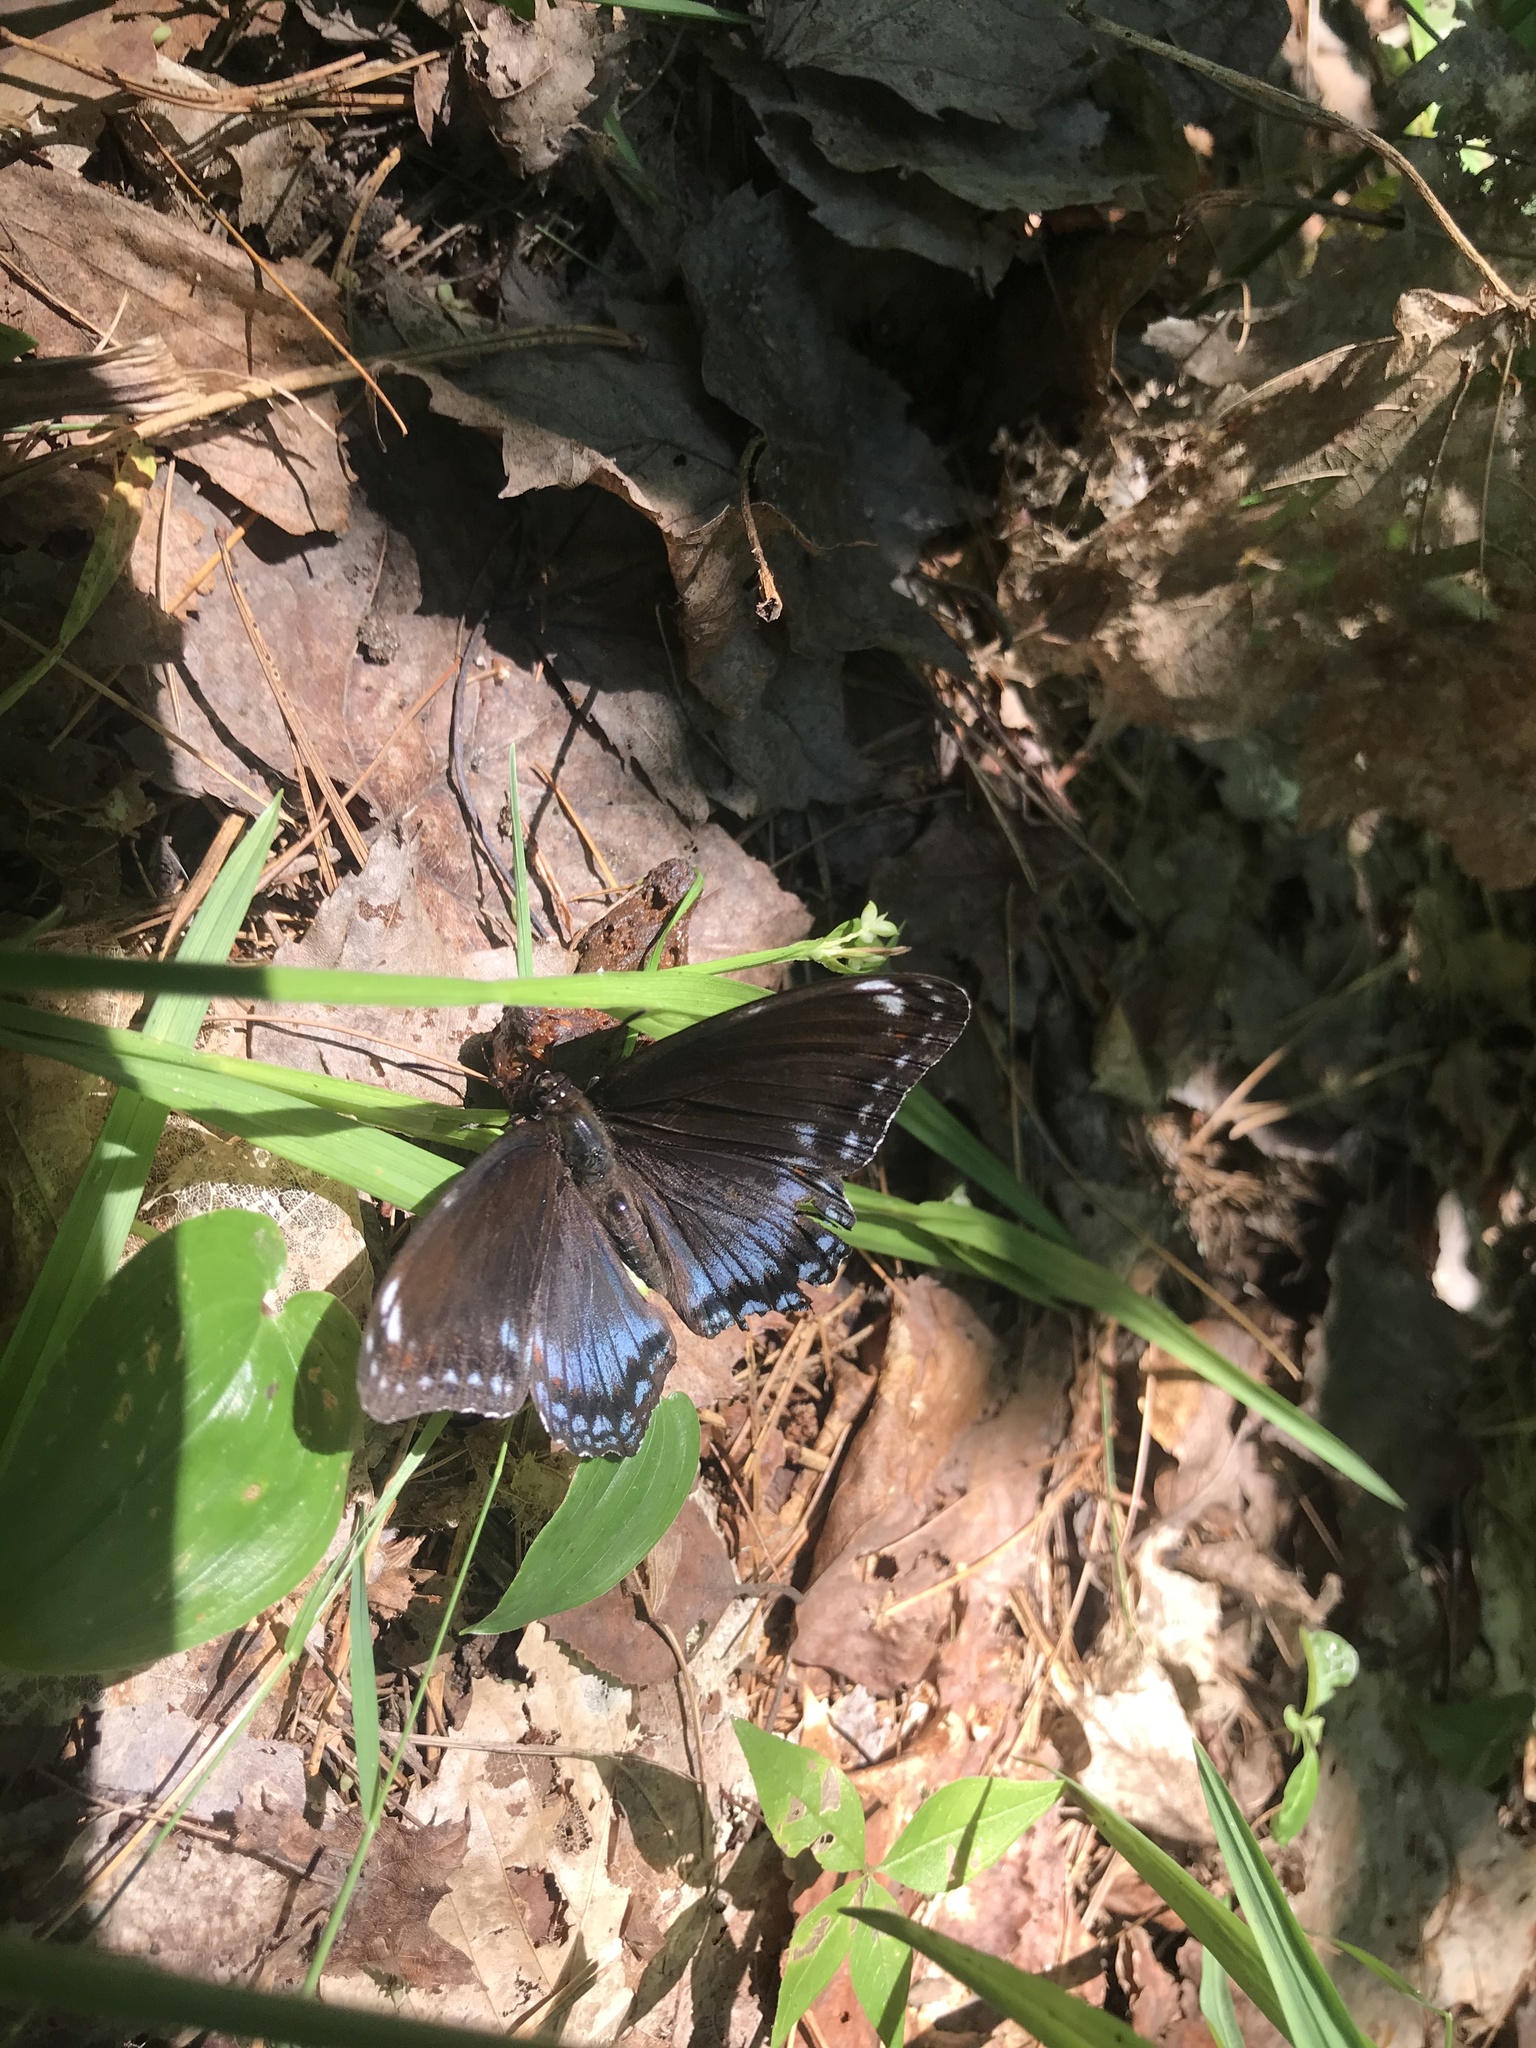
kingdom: Animalia
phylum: Arthropoda
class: Insecta
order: Lepidoptera
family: Nymphalidae
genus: Limenitis
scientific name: Limenitis arthemis
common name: Red-spotted admiral
